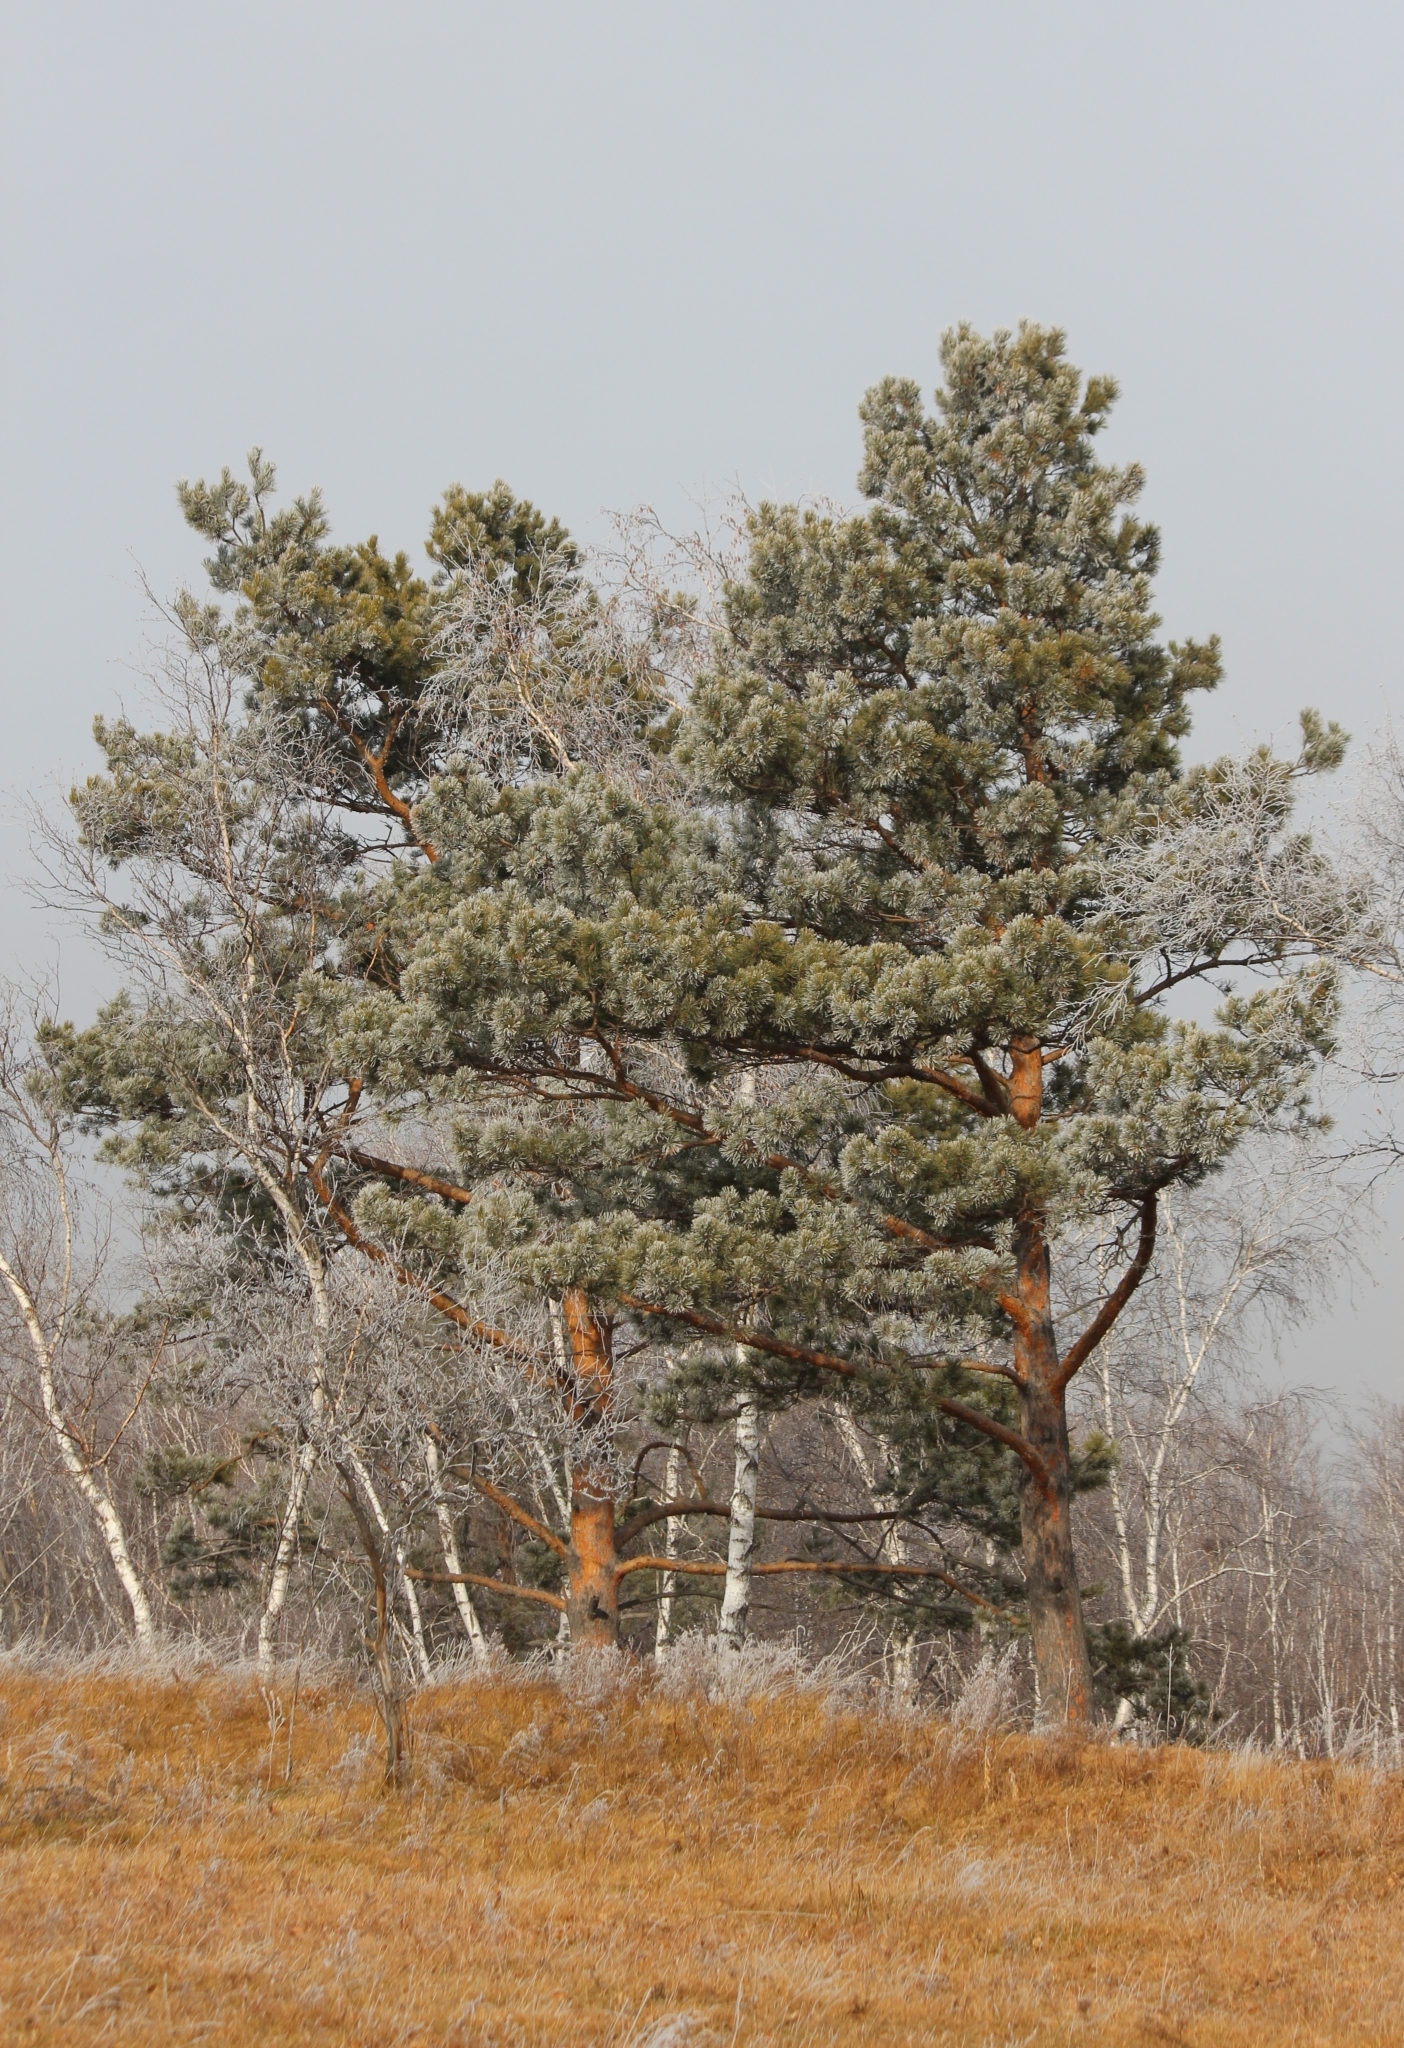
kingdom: Plantae
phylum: Tracheophyta
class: Pinopsida
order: Pinales
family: Pinaceae
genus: Pinus
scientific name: Pinus sylvestris
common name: Scots pine
